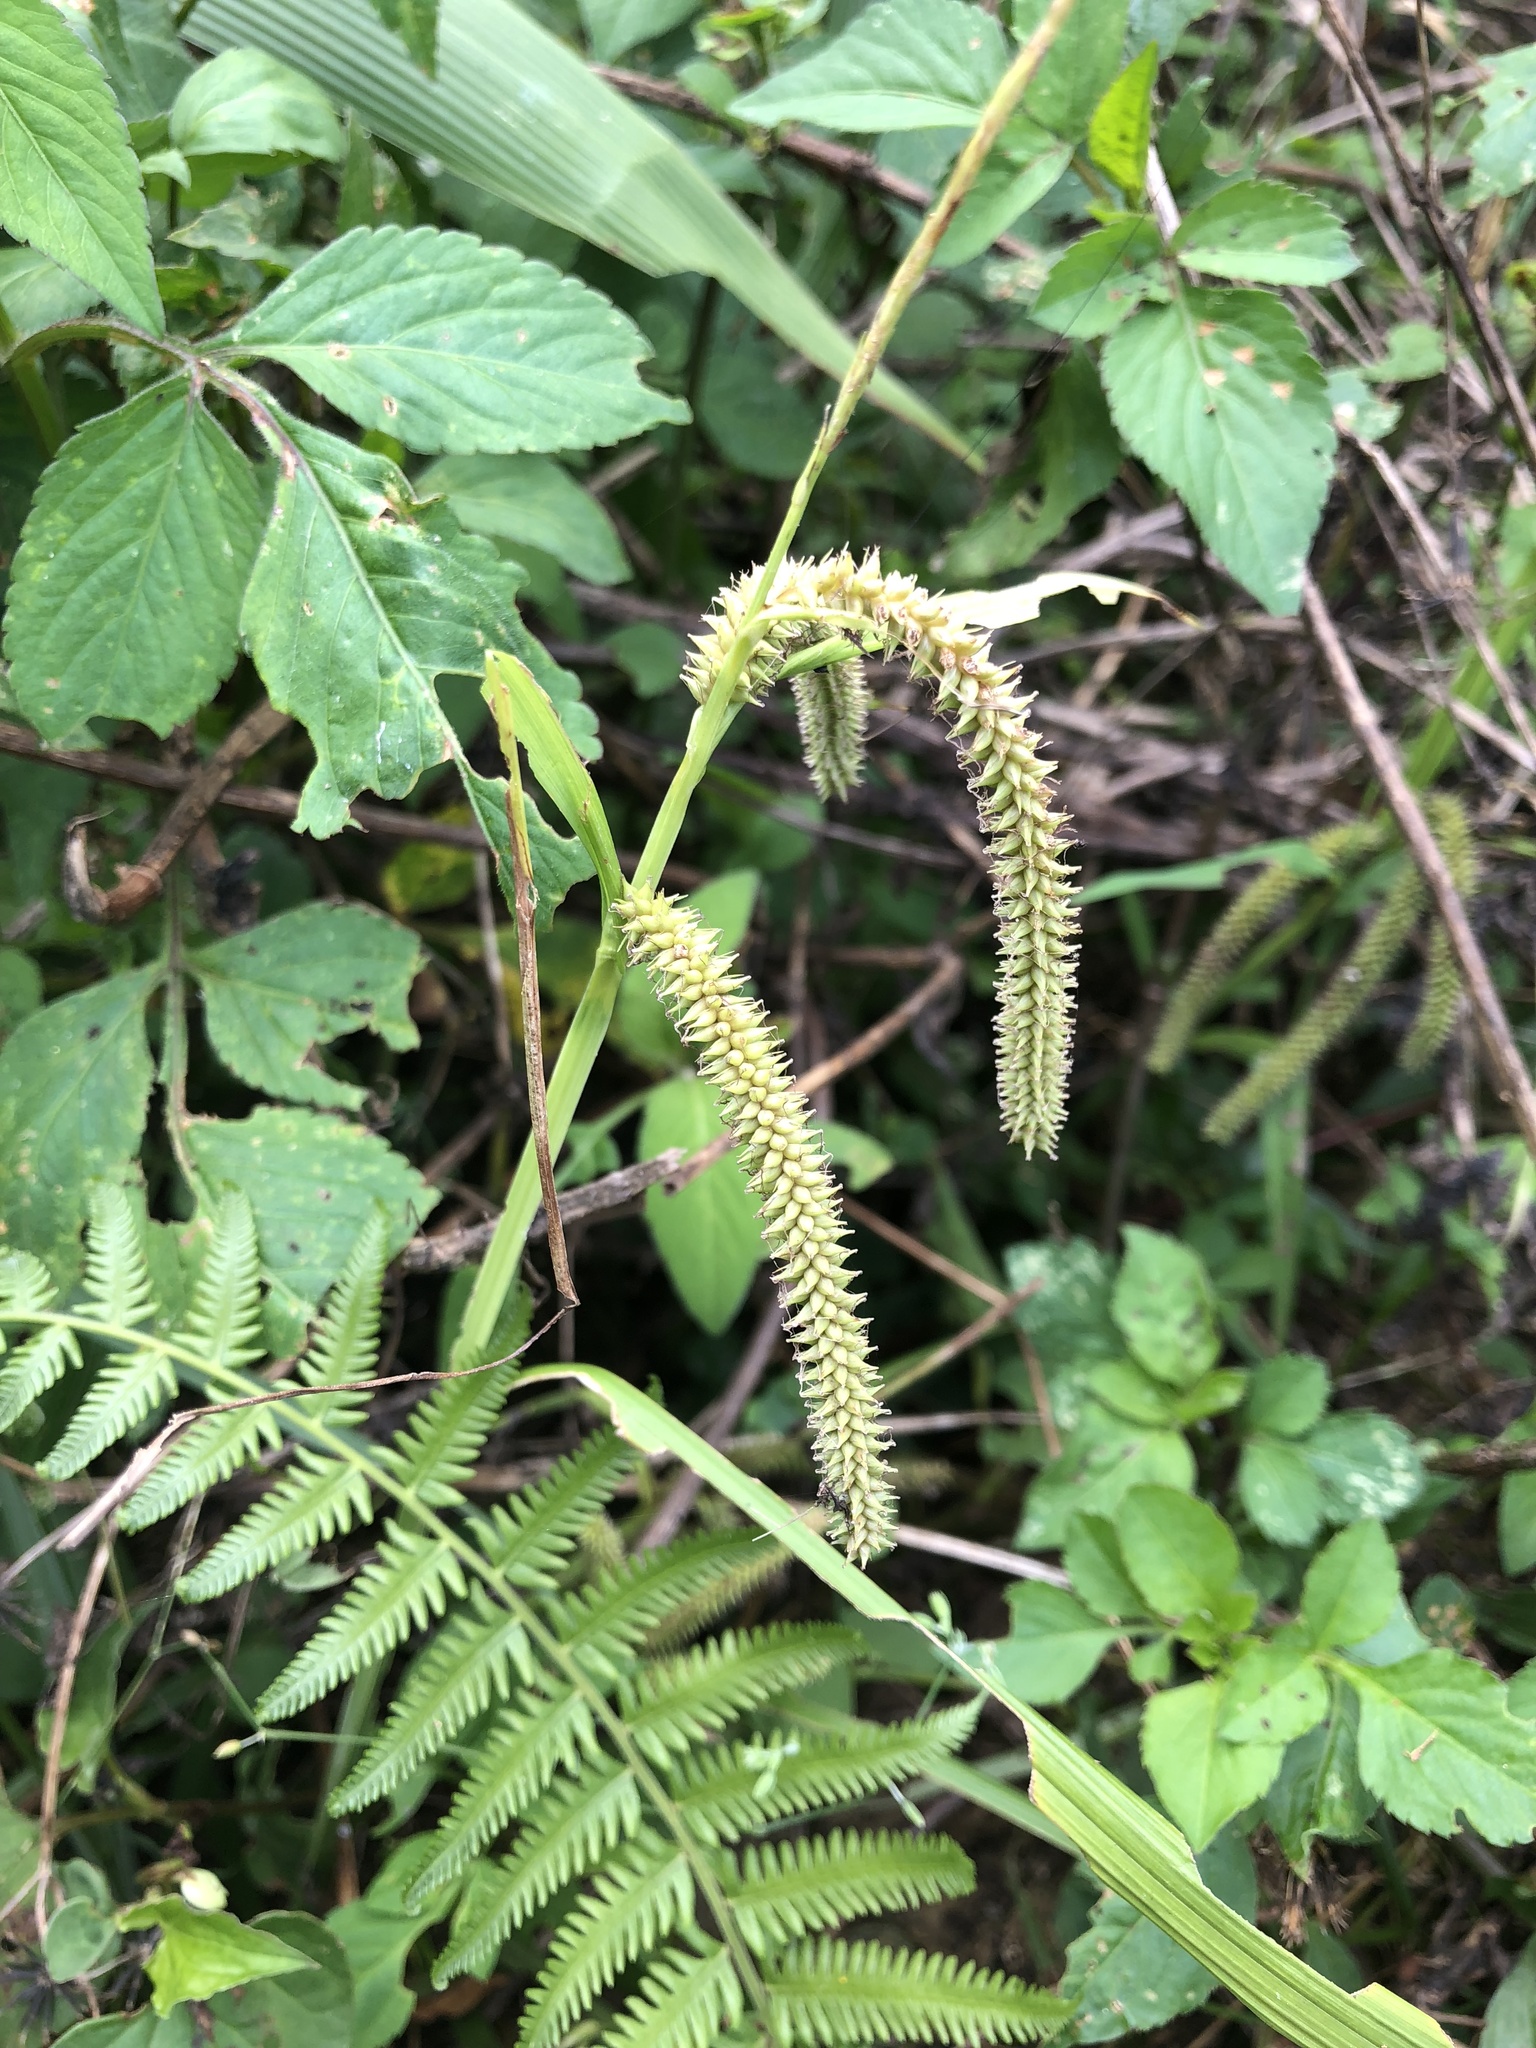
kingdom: Plantae
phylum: Tracheophyta
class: Liliopsida
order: Poales
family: Cyperaceae
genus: Carex
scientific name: Carex doniana
